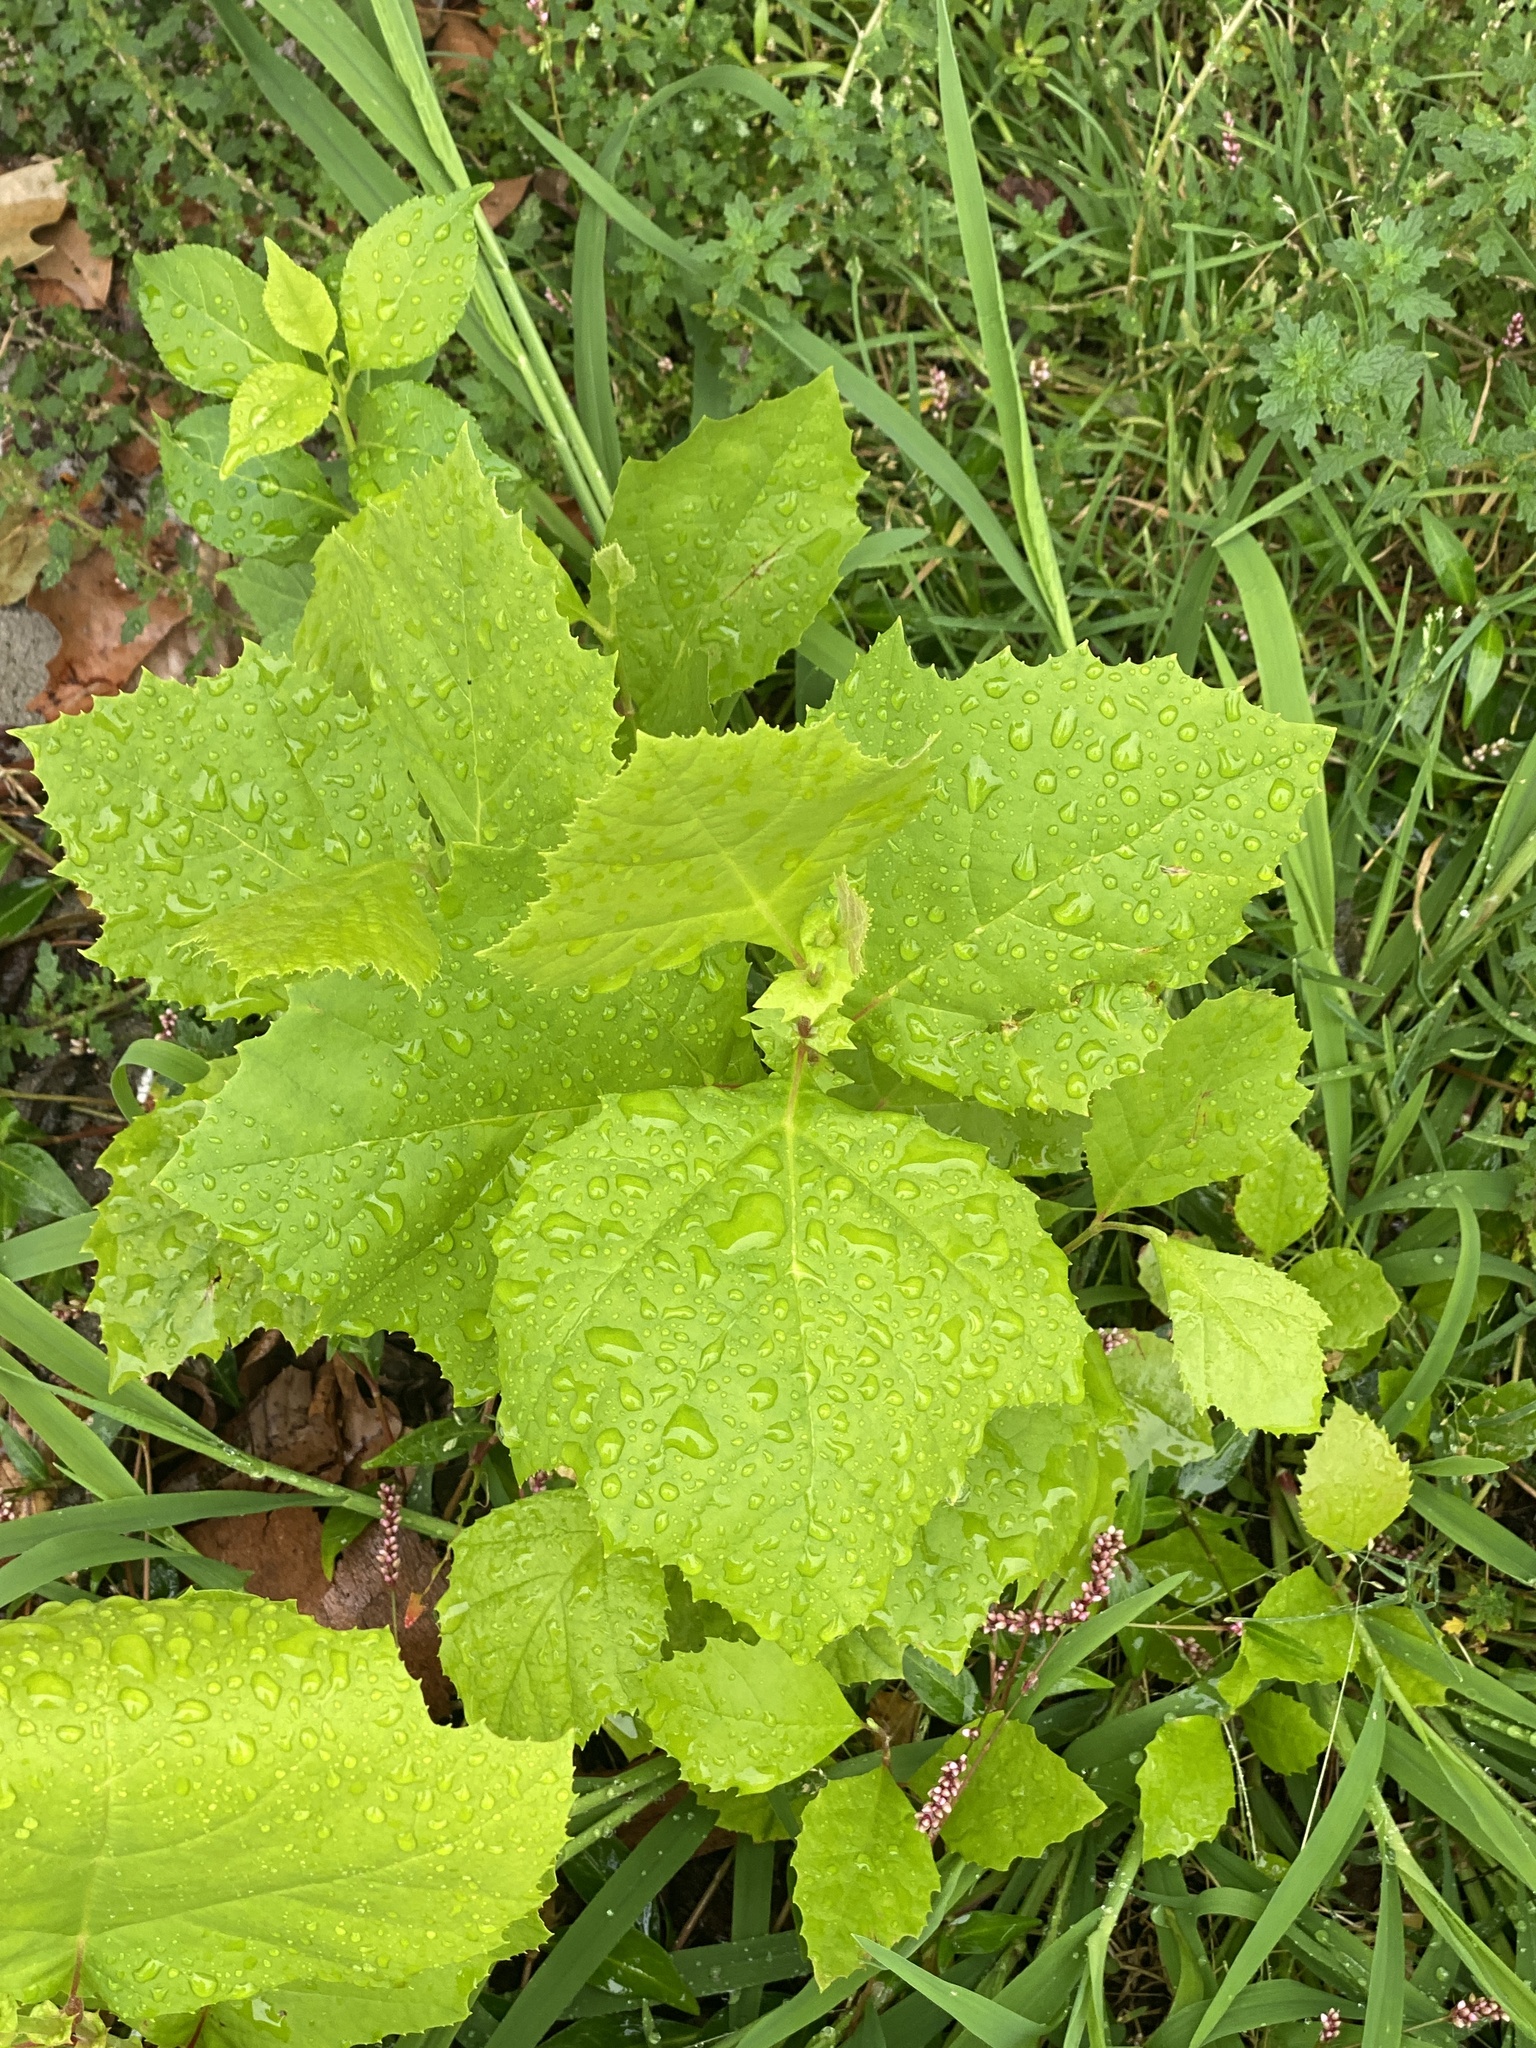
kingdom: Plantae
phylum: Tracheophyta
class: Magnoliopsida
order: Proteales
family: Platanaceae
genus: Platanus
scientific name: Platanus occidentalis
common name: American sycamore
